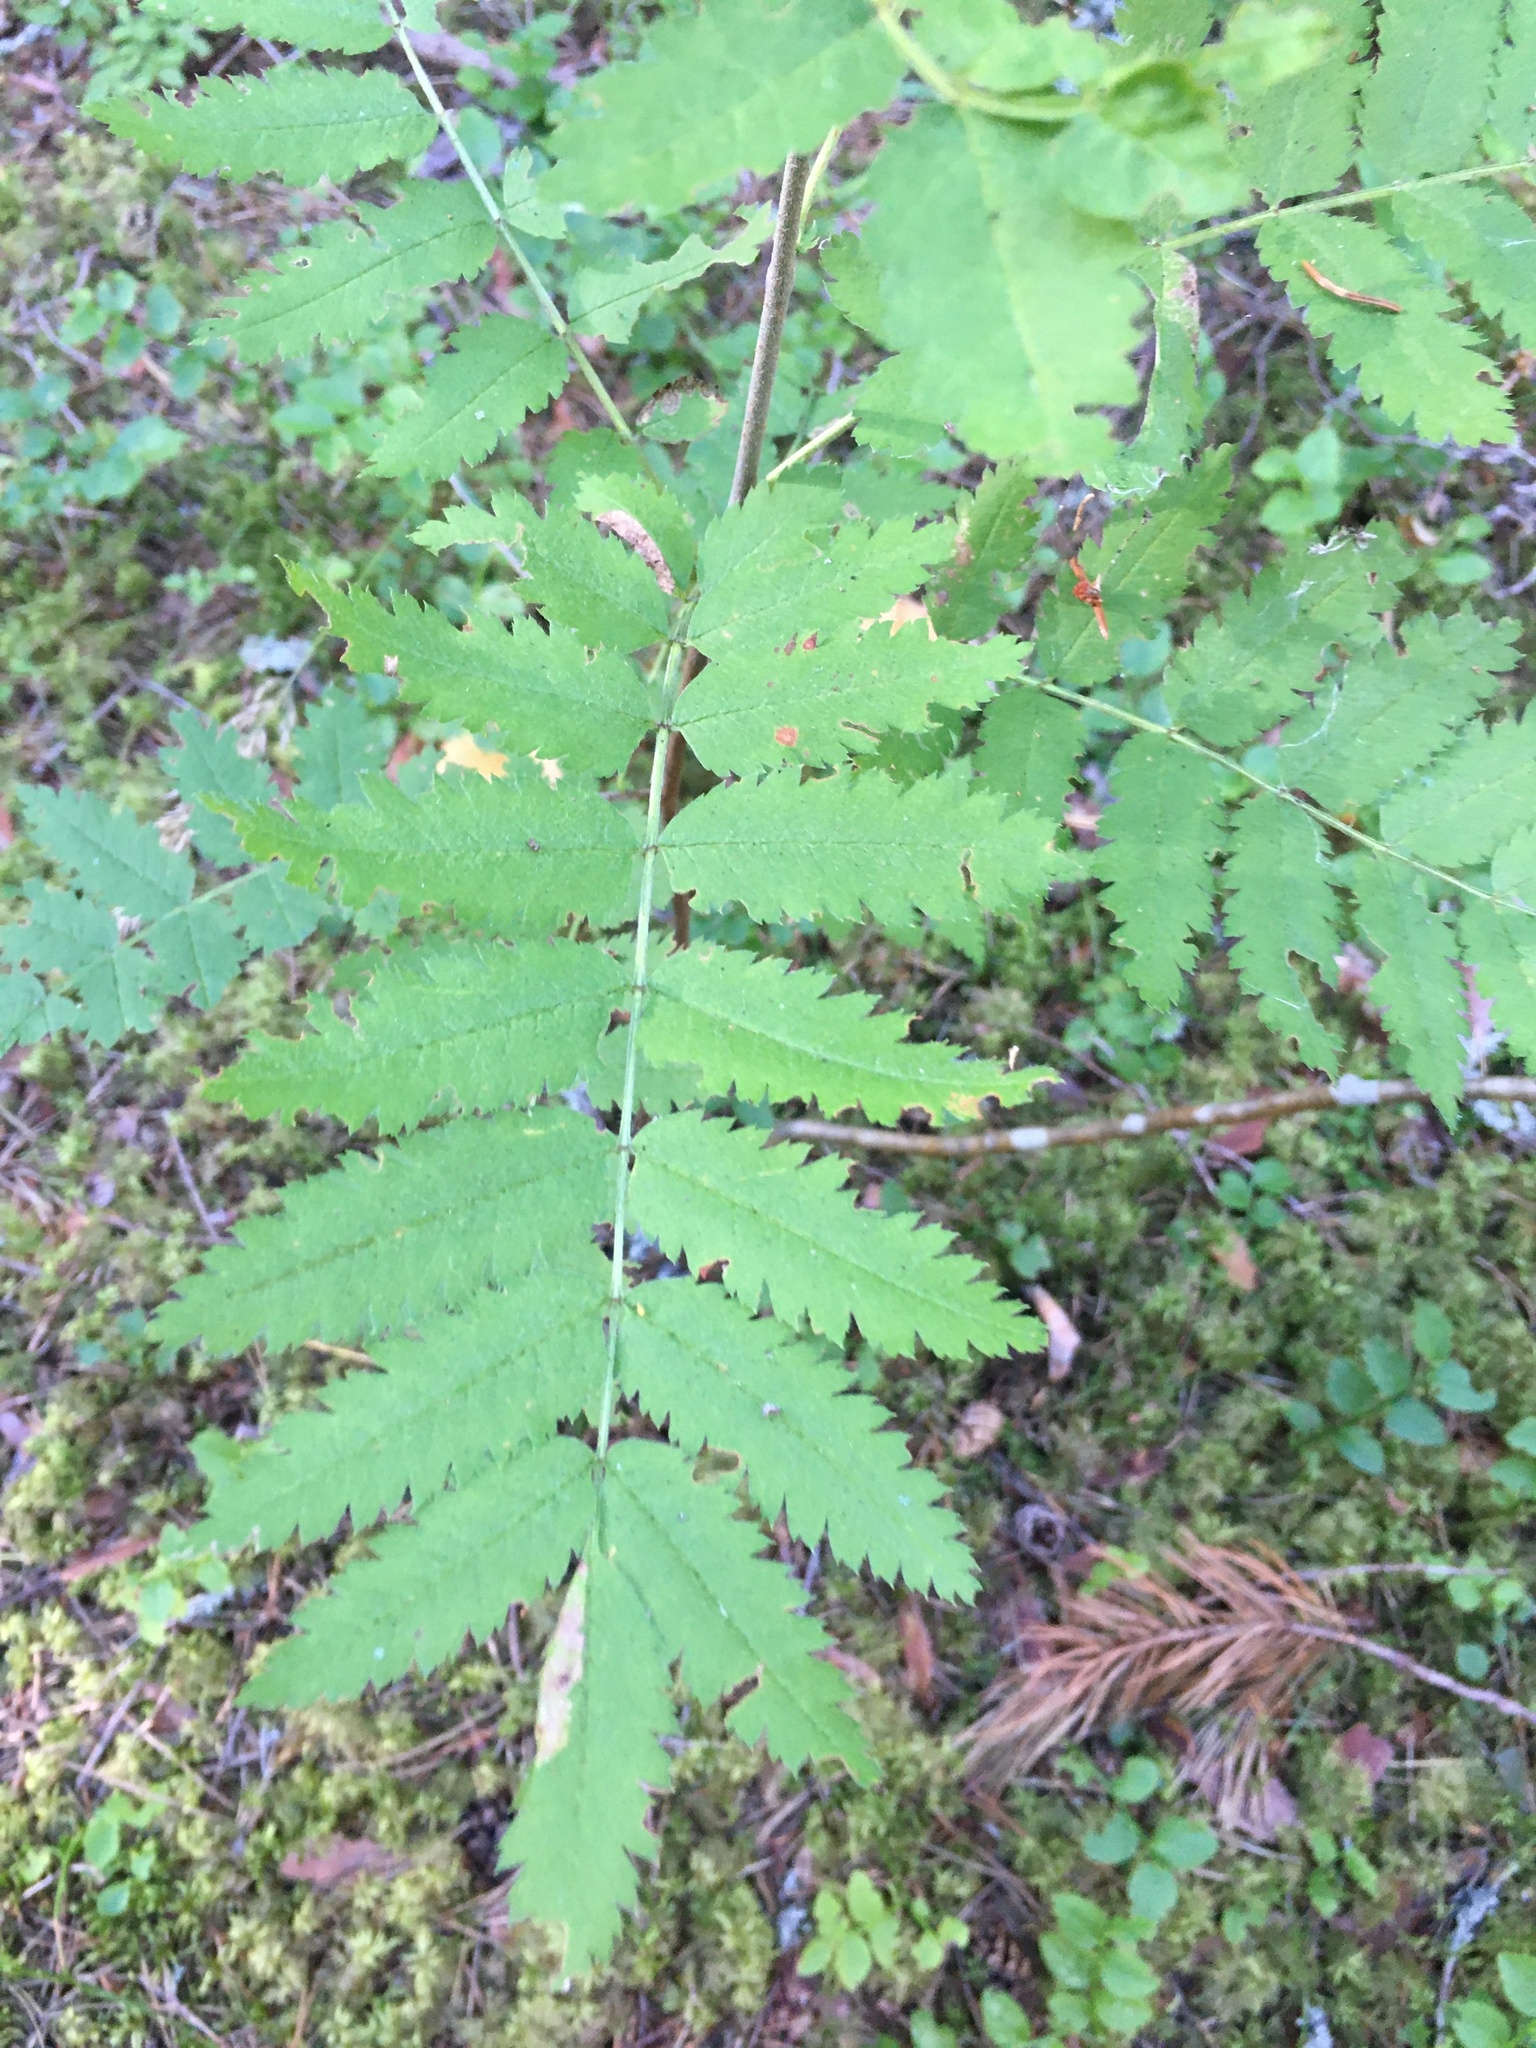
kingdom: Plantae
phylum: Tracheophyta
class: Magnoliopsida
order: Rosales
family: Rosaceae
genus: Sorbus
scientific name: Sorbus aucuparia
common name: Rowan
